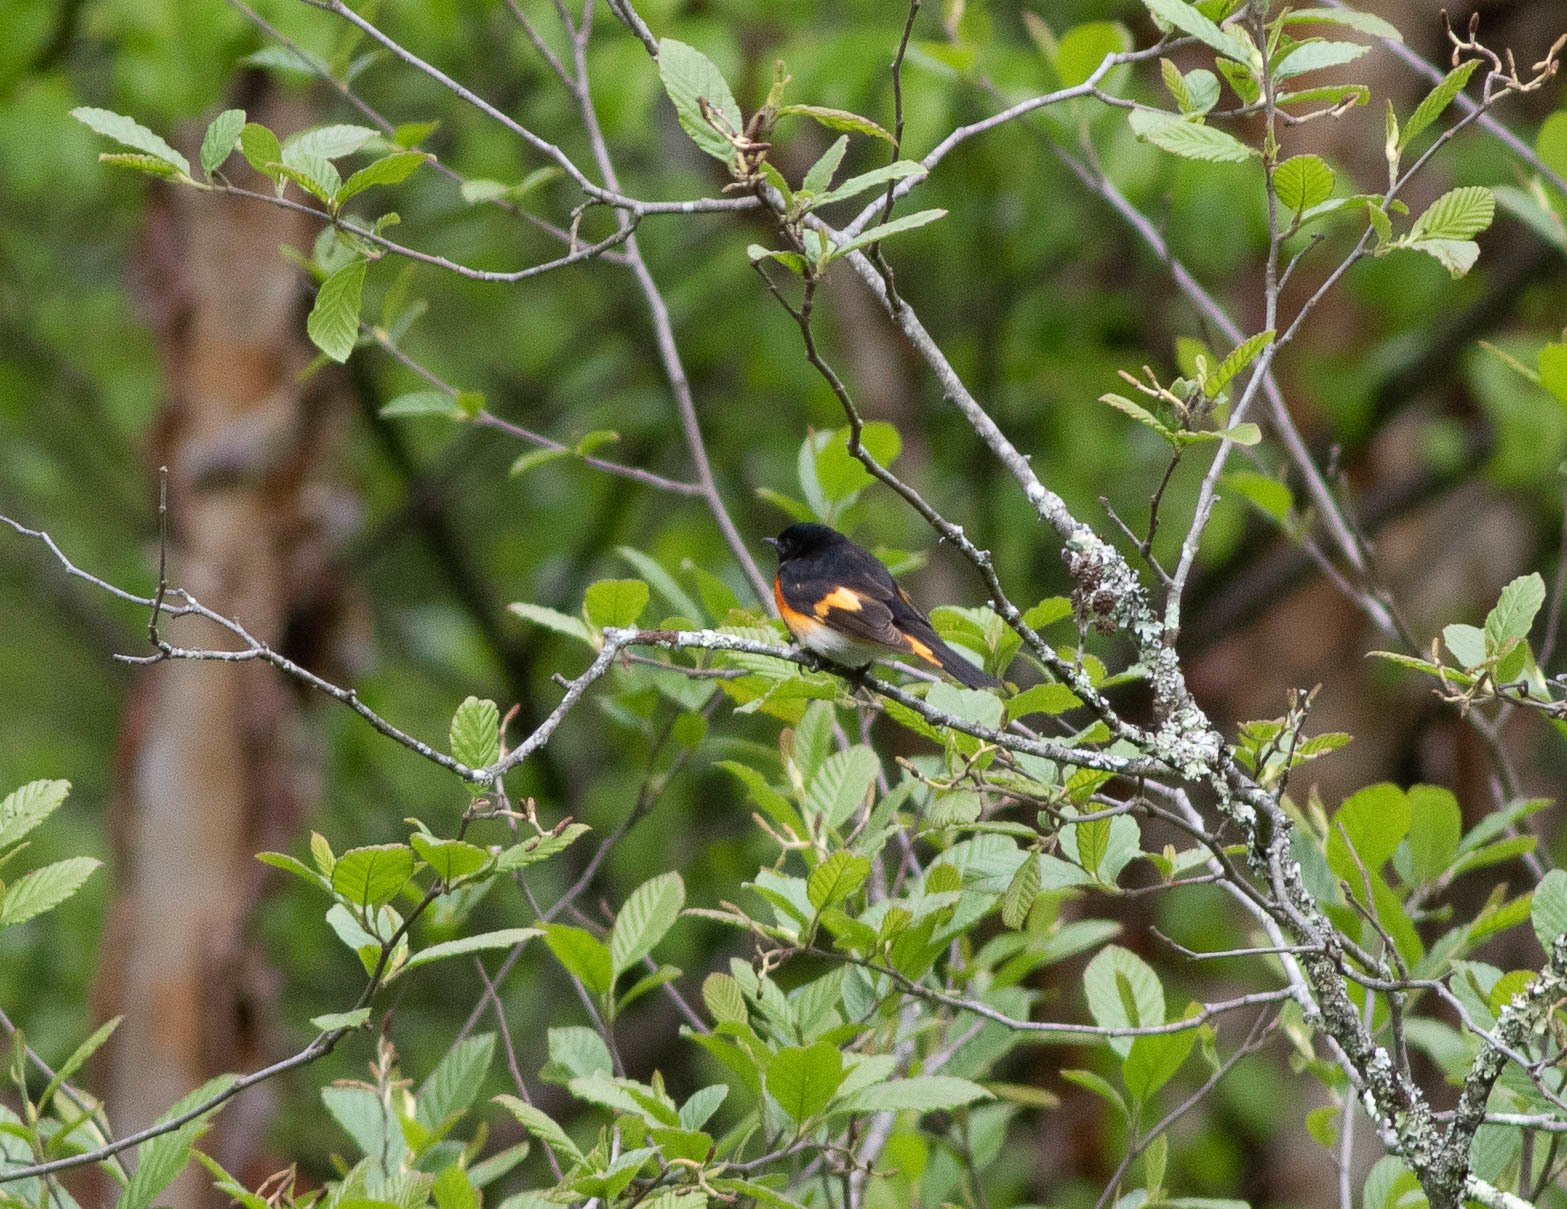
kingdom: Animalia
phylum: Chordata
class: Aves
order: Passeriformes
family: Parulidae
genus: Setophaga
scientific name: Setophaga ruticilla
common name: American redstart
